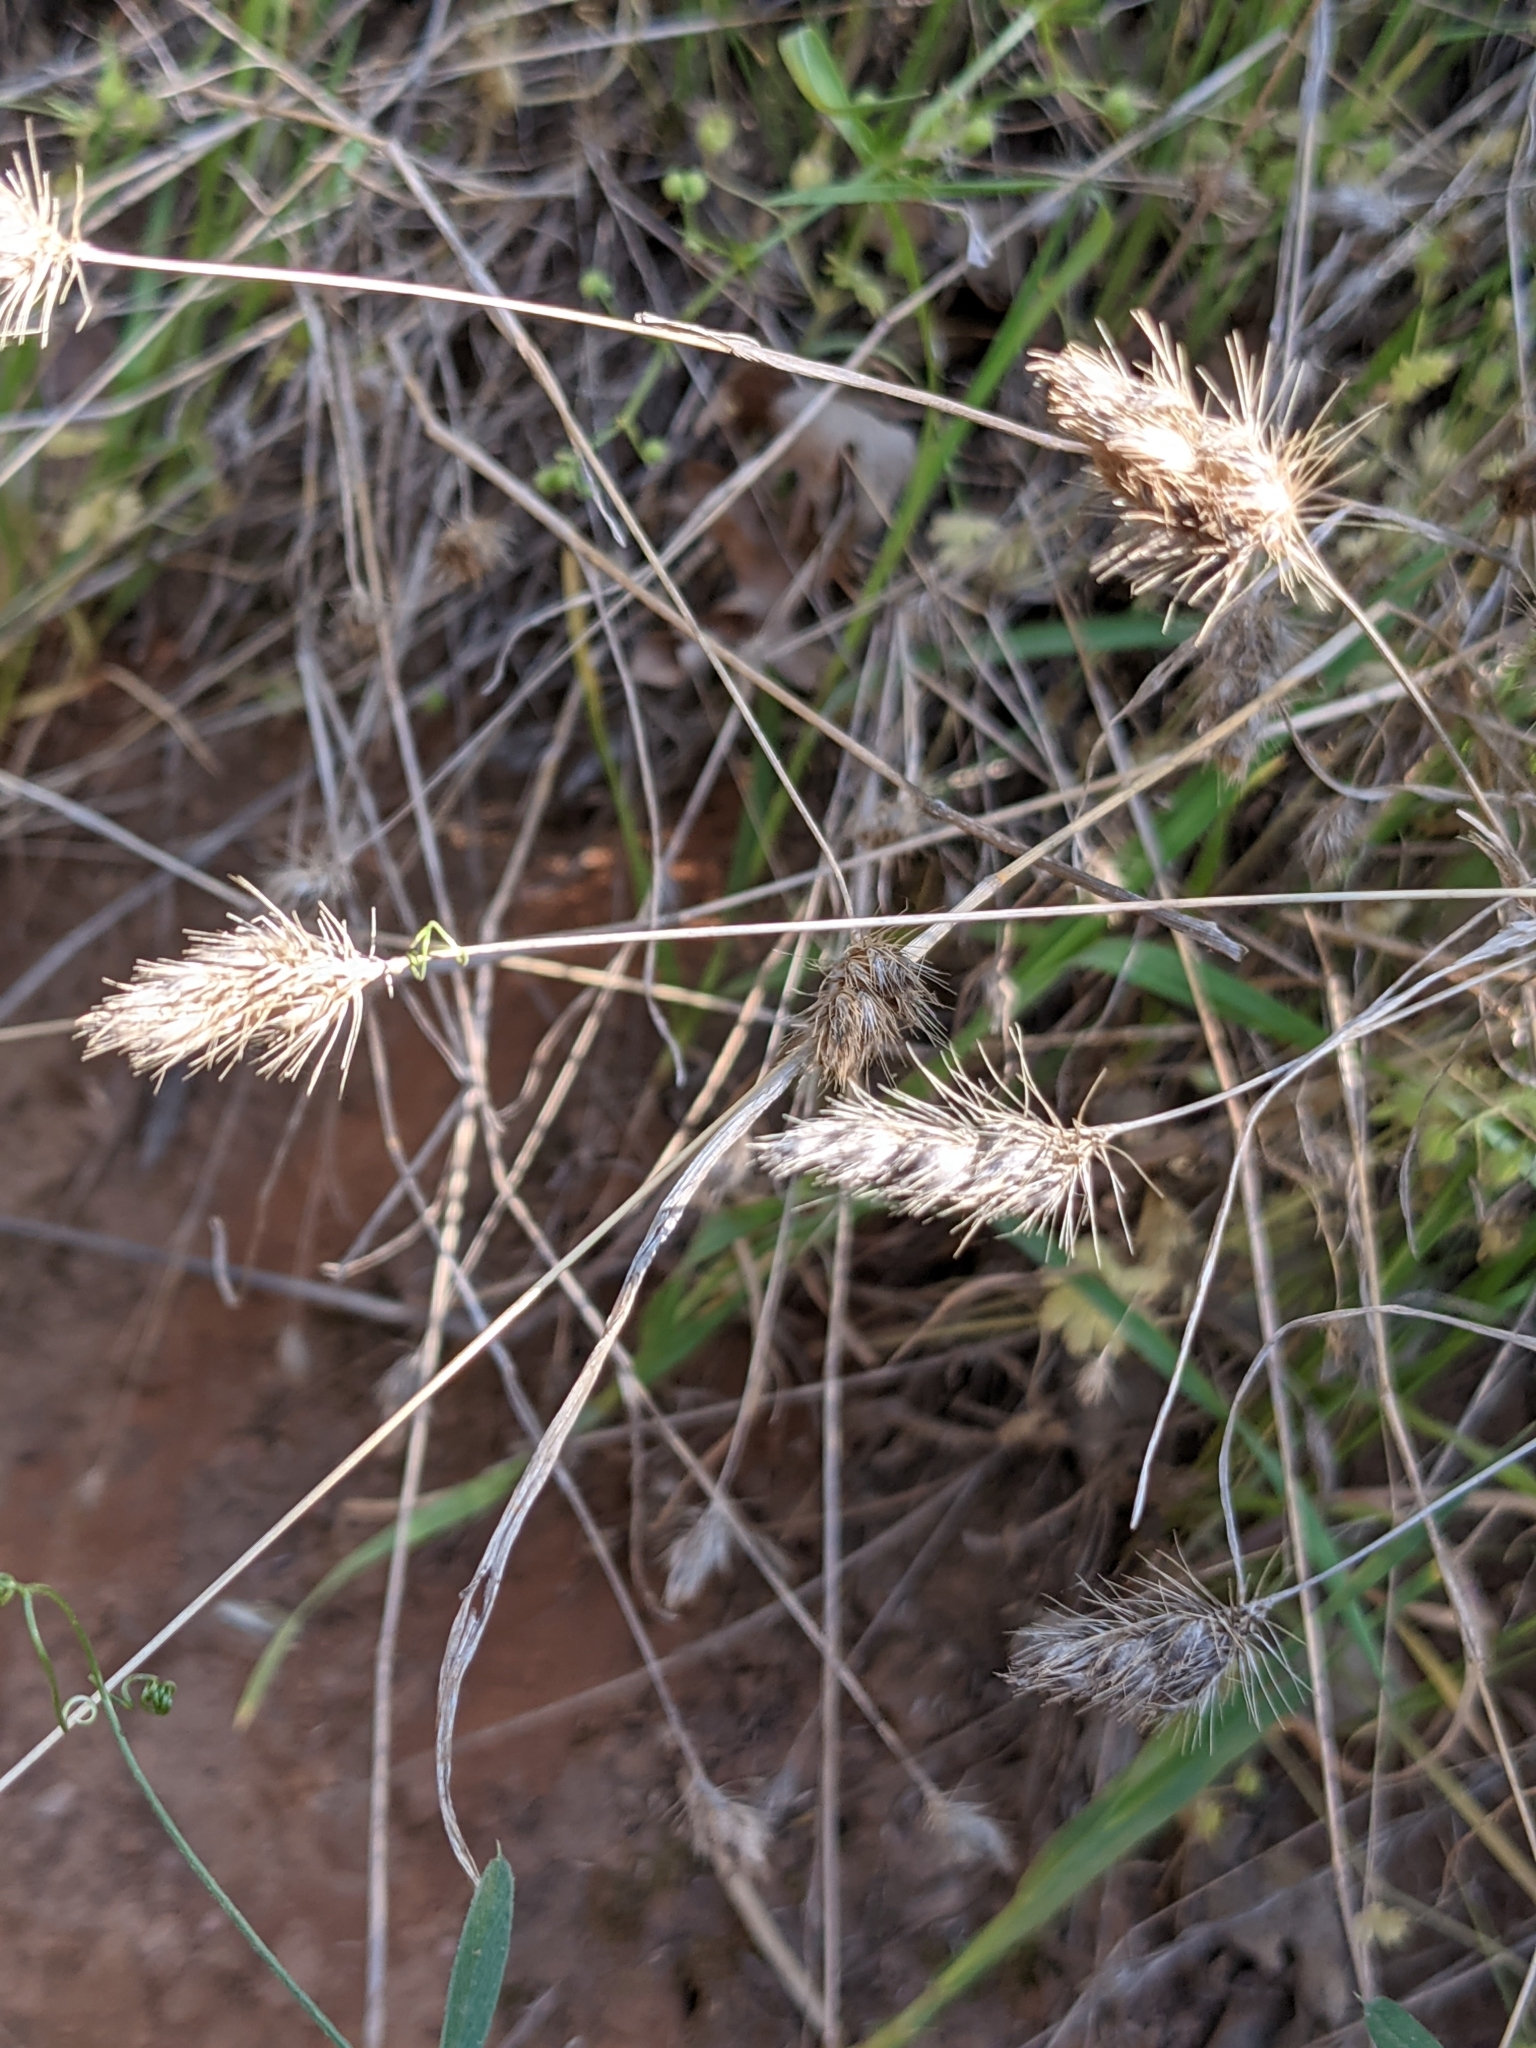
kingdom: Plantae
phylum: Tracheophyta
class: Liliopsida
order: Poales
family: Poaceae
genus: Cynosurus
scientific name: Cynosurus echinatus
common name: Rough dog's-tail
